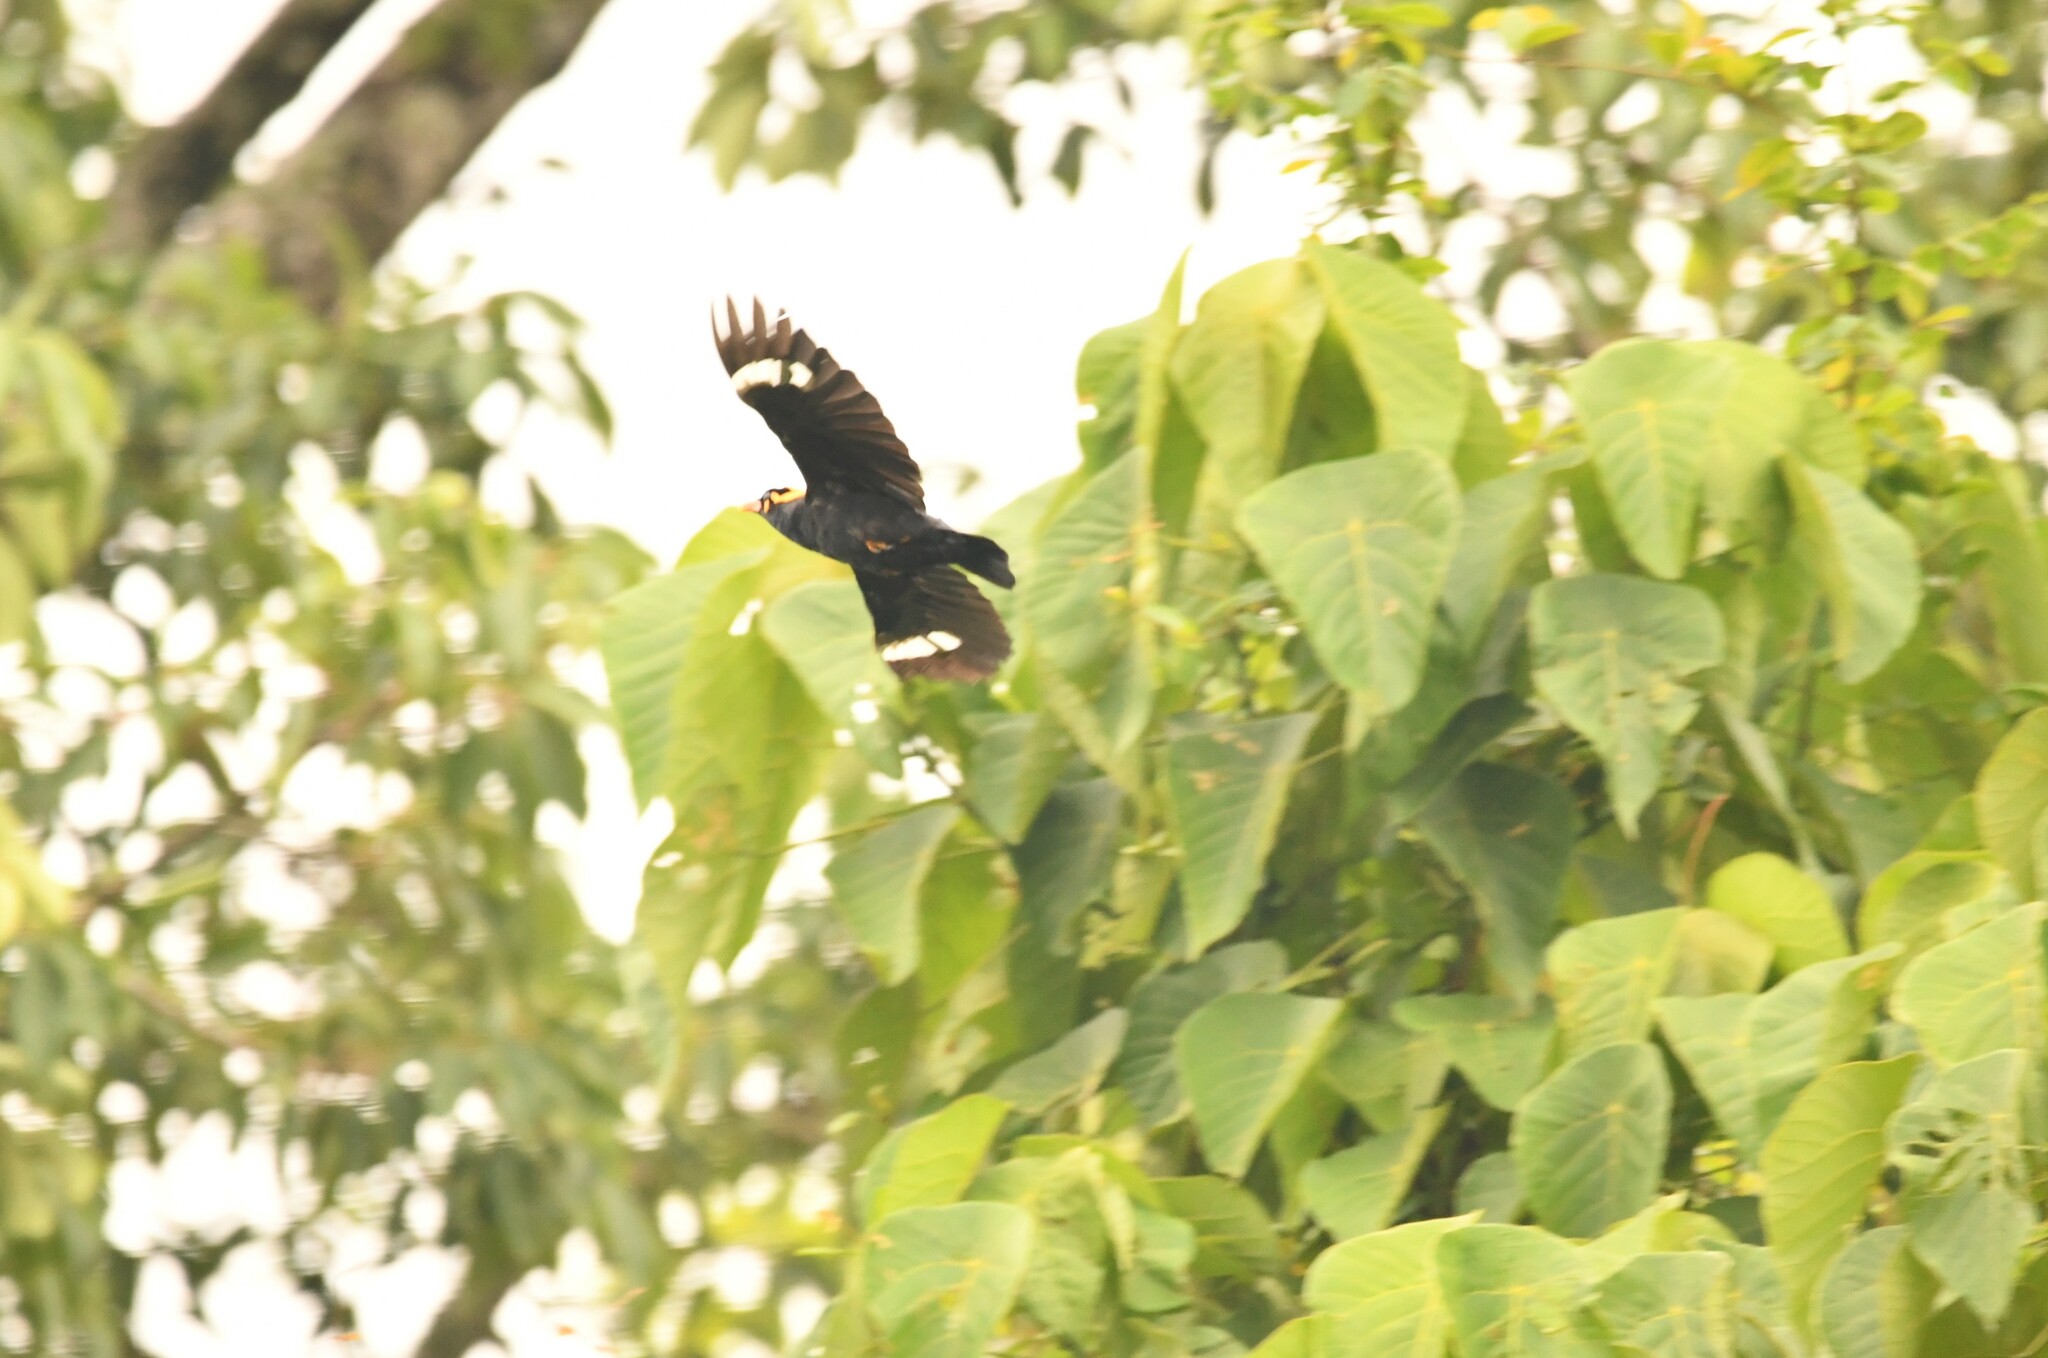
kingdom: Animalia
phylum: Chordata
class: Aves
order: Passeriformes
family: Sturnidae
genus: Gracula
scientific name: Gracula indica
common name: Southern hill myna
